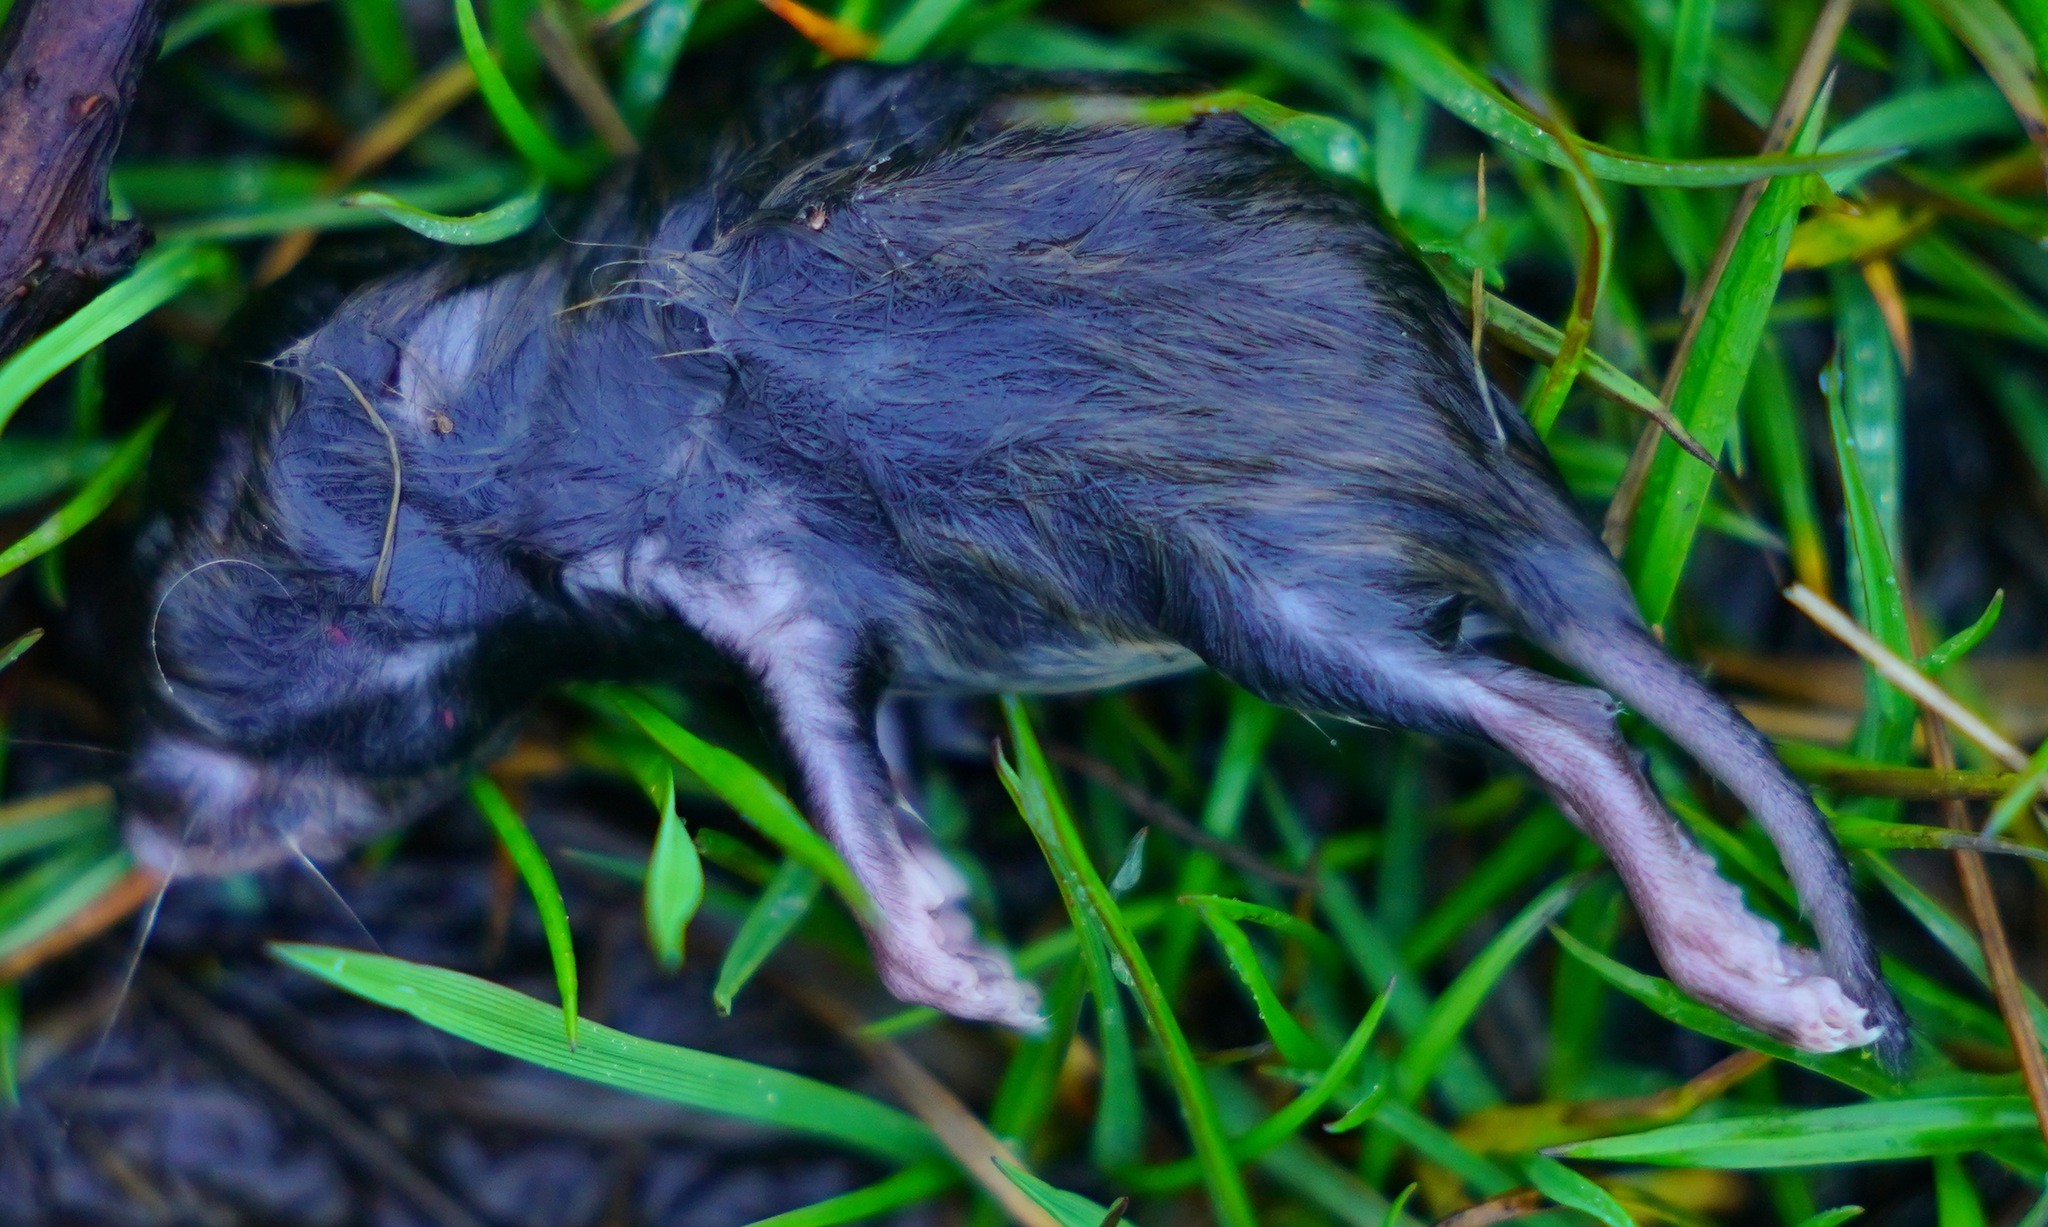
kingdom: Animalia
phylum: Chordata
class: Mammalia
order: Rodentia
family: Cricetidae
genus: Microtus
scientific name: Microtus californicus
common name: California vole
